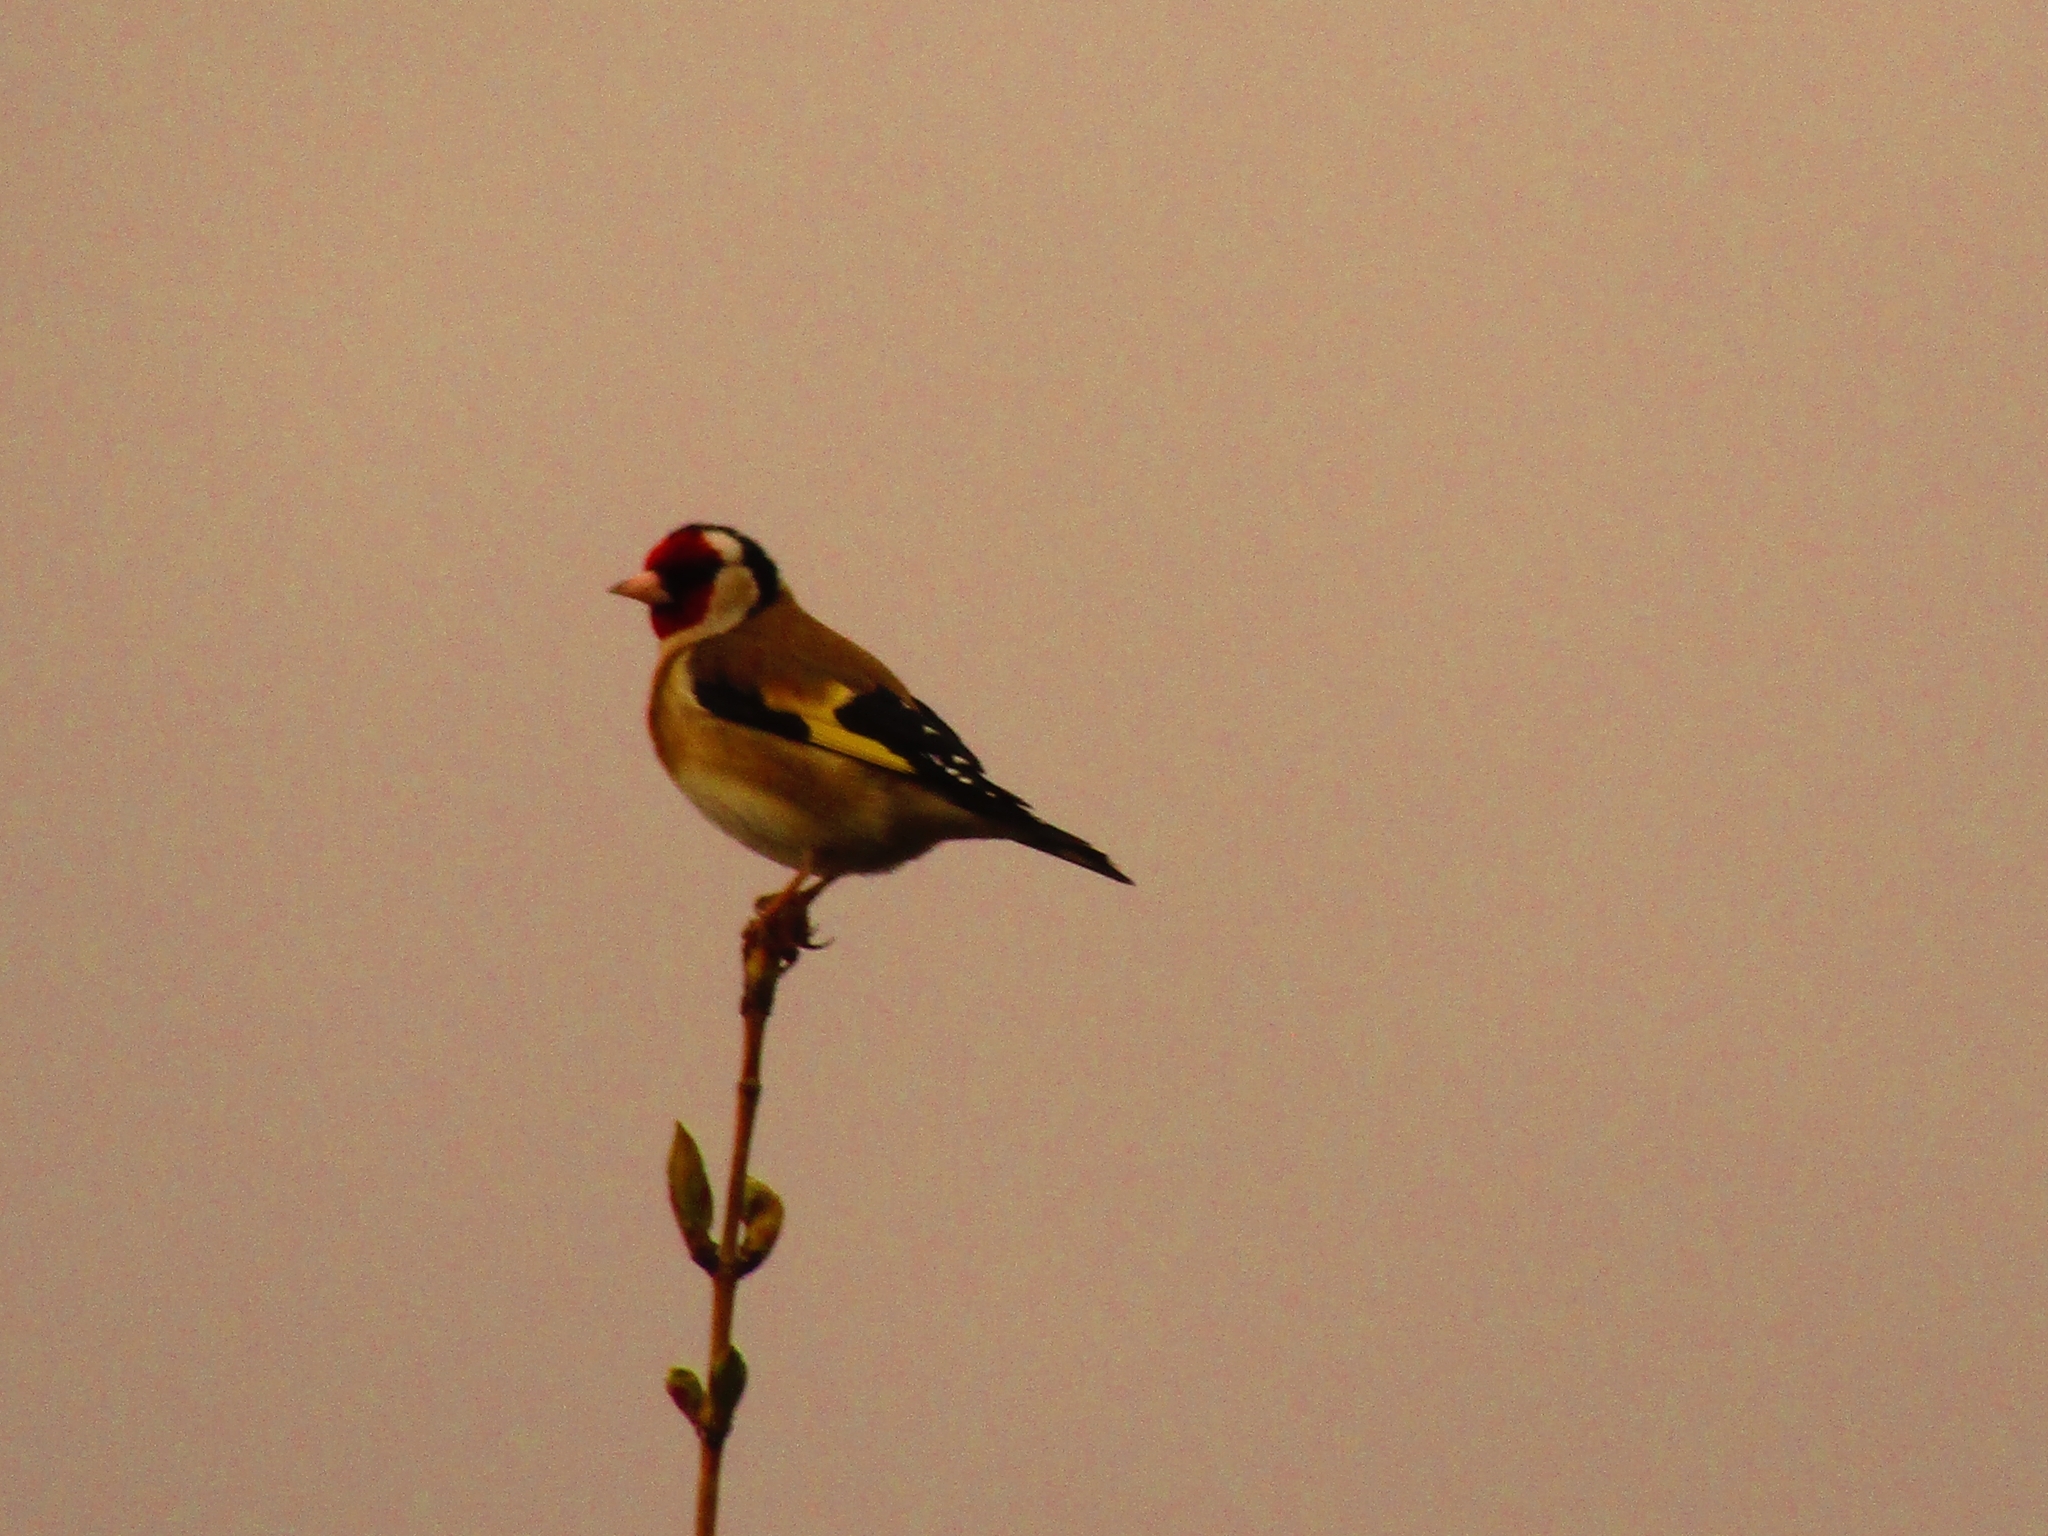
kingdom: Animalia
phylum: Chordata
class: Aves
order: Passeriformes
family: Fringillidae
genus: Carduelis
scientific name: Carduelis carduelis
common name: European goldfinch
